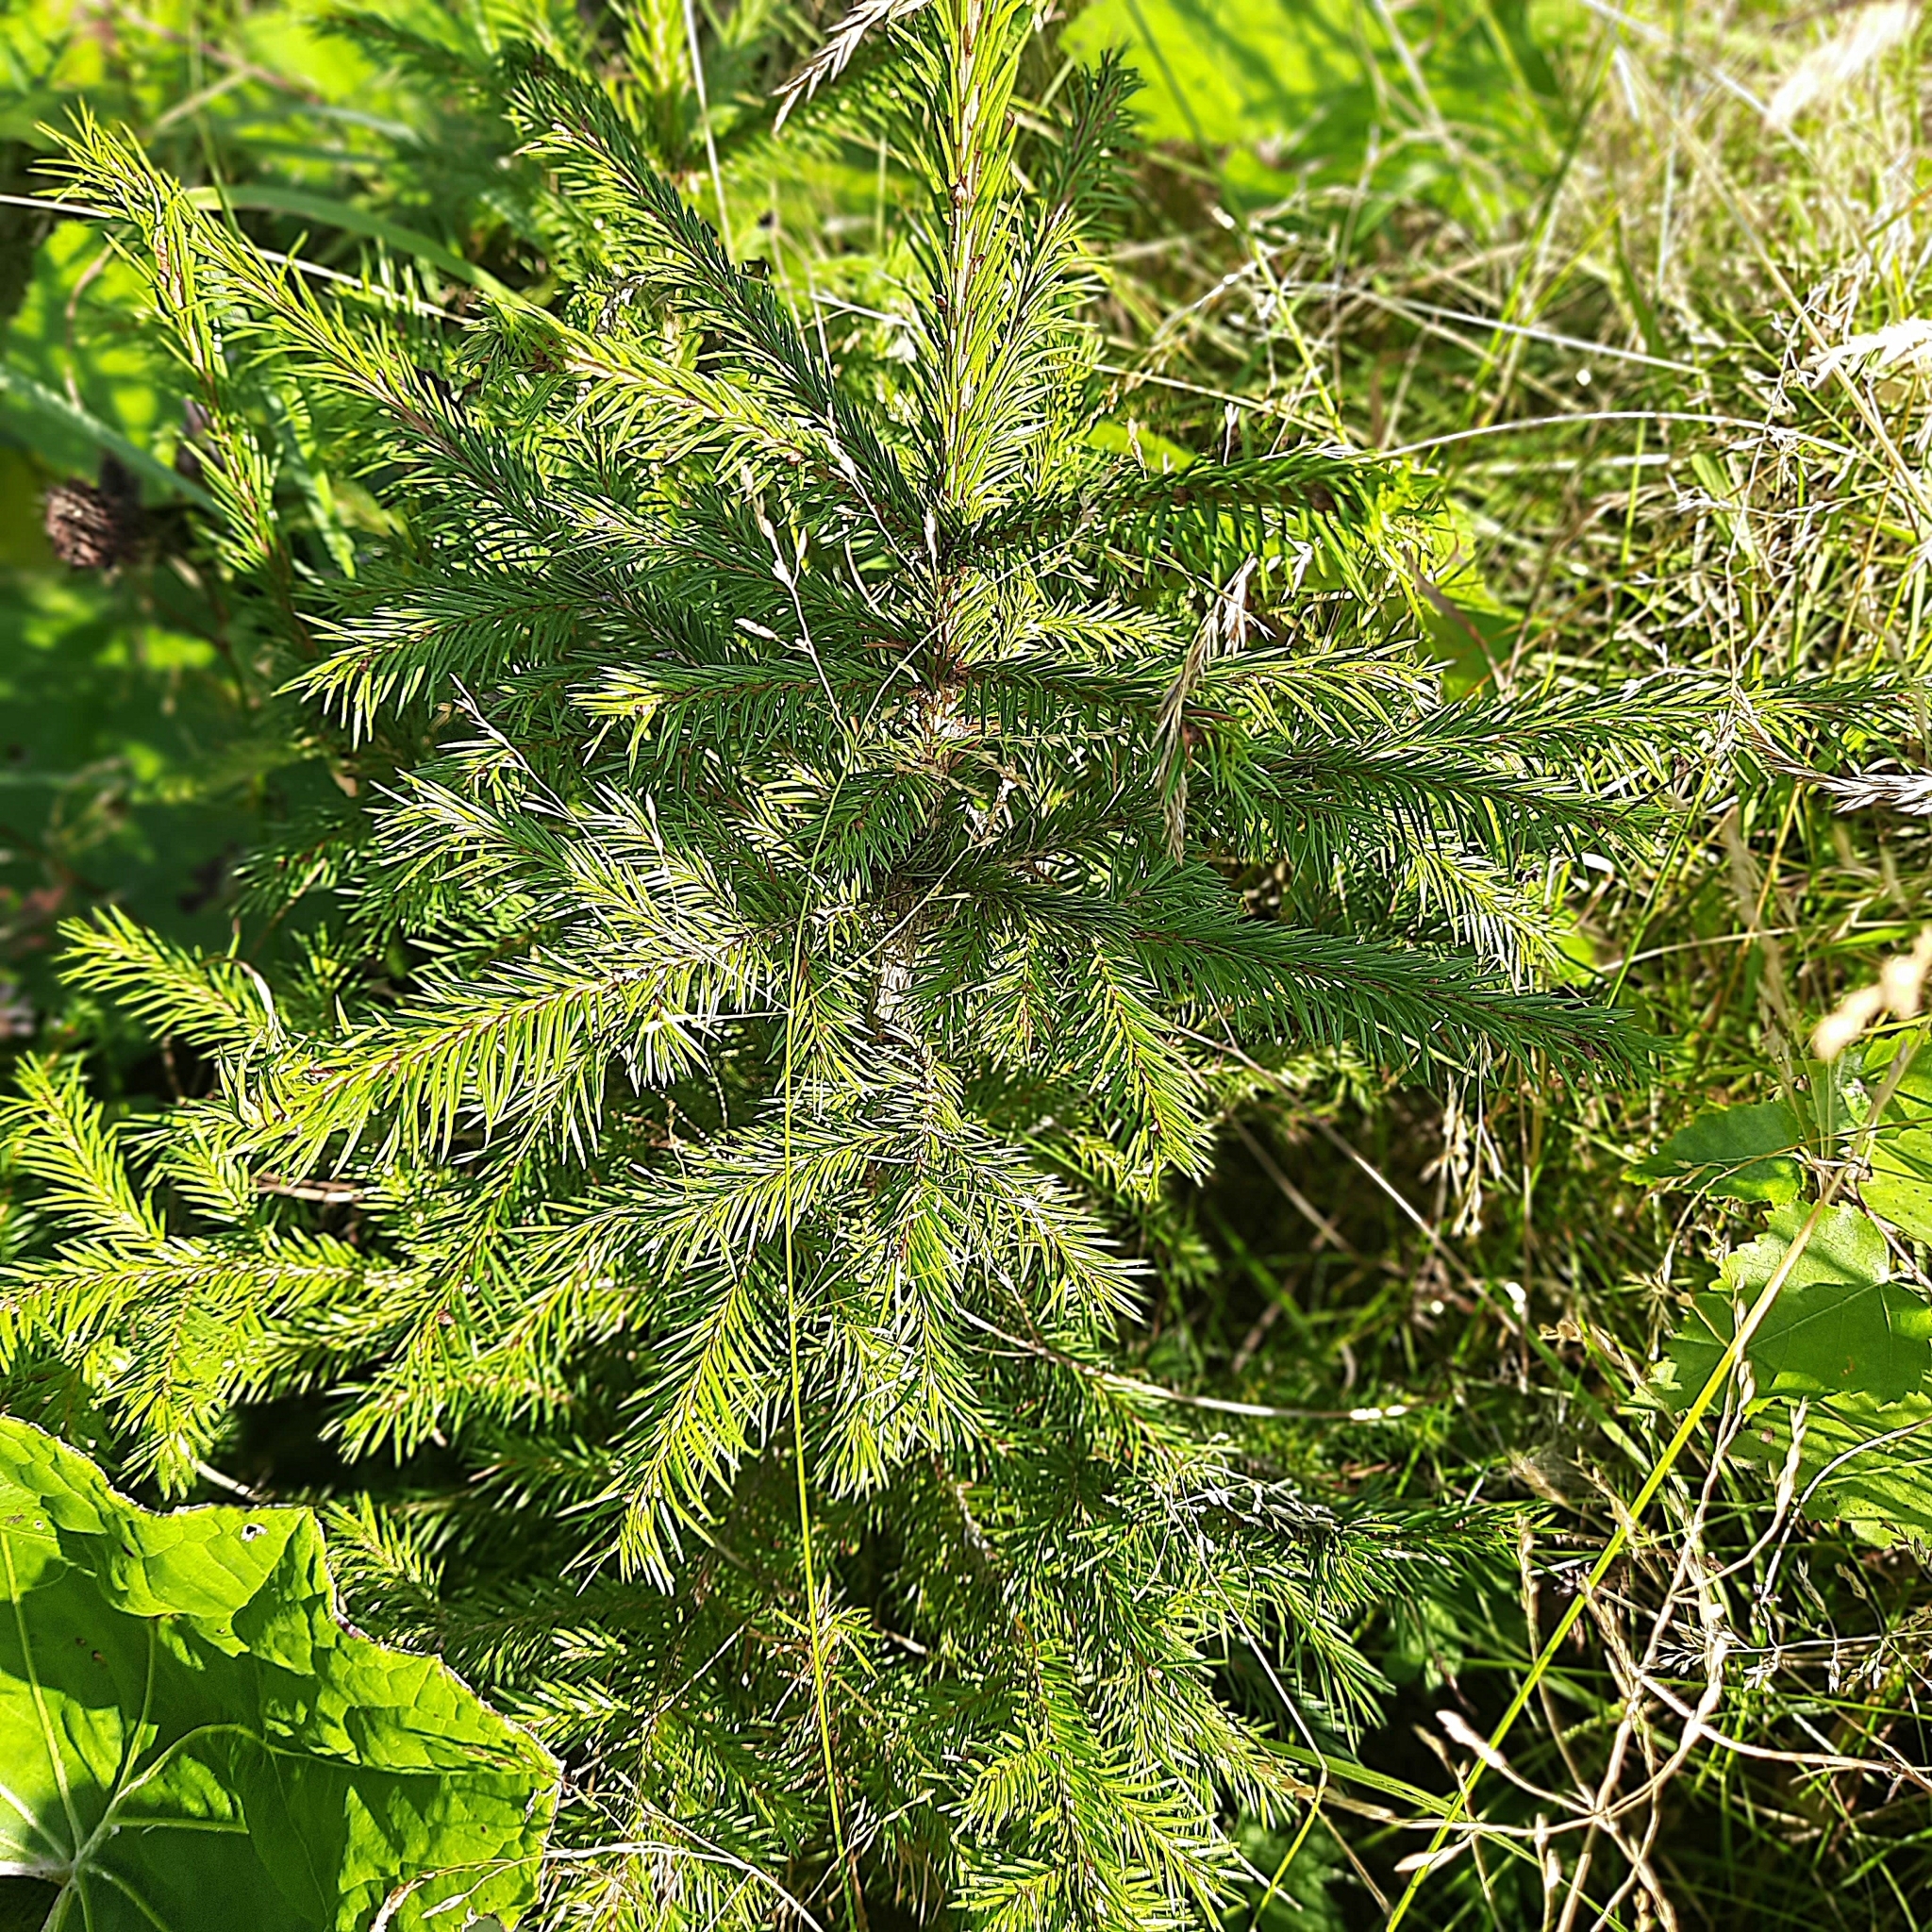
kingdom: Plantae
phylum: Tracheophyta
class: Pinopsida
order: Pinales
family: Pinaceae
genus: Picea
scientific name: Picea obovata
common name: Siberian spruce
